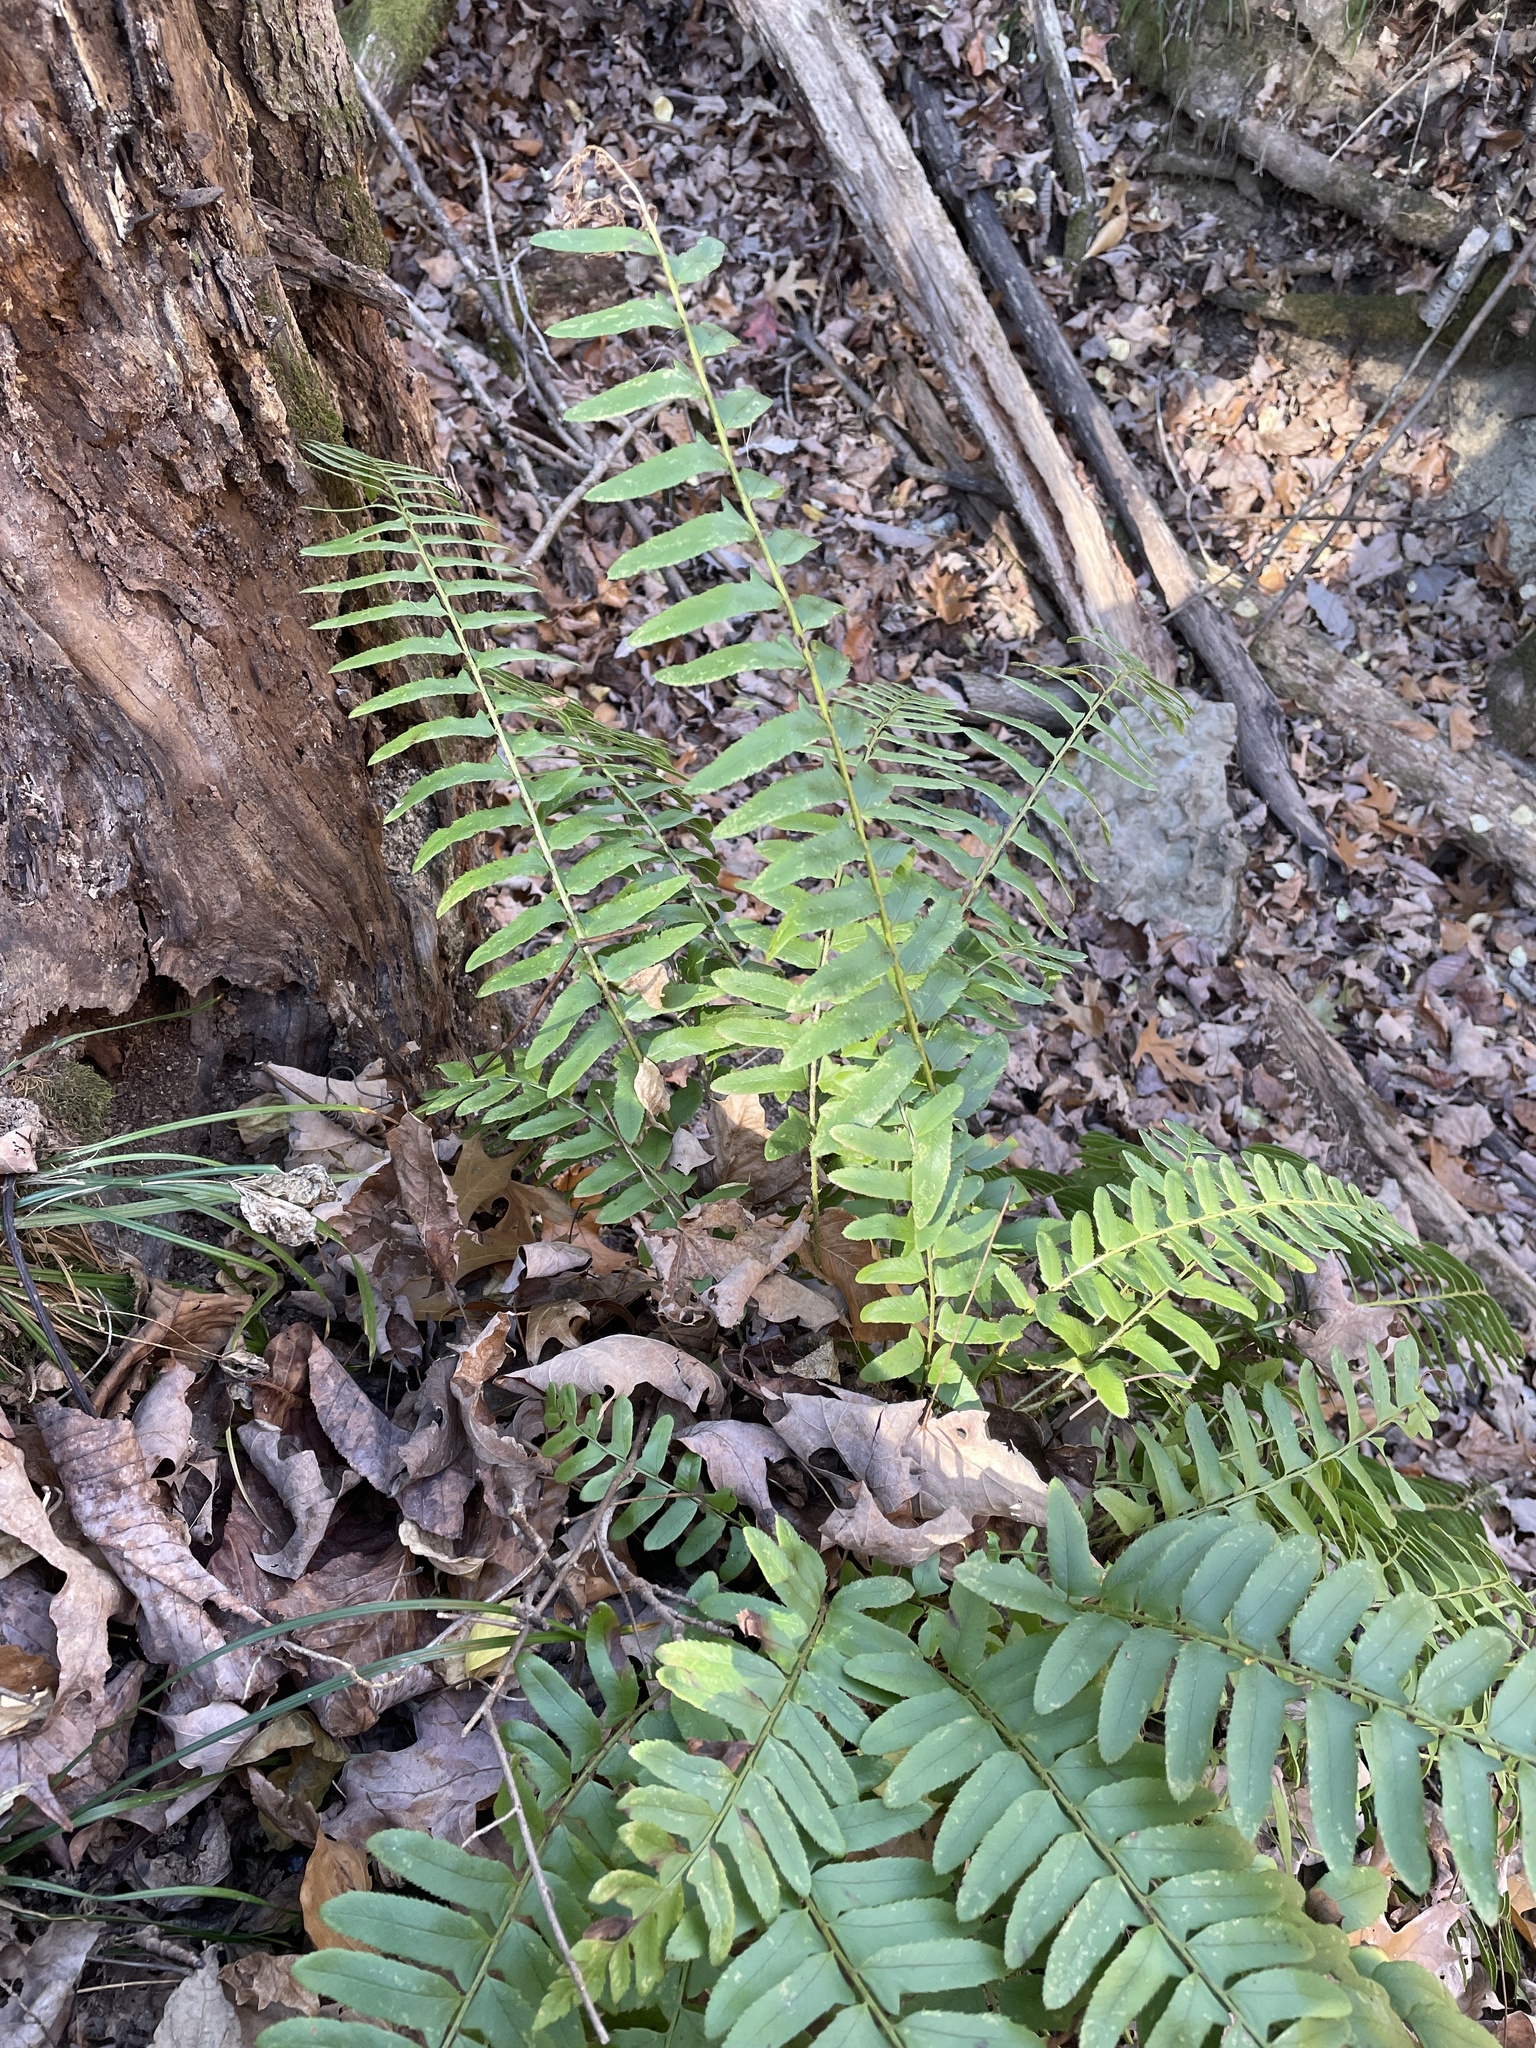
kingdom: Plantae
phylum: Tracheophyta
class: Polypodiopsida
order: Polypodiales
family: Dryopteridaceae
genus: Polystichum
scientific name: Polystichum acrostichoides
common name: Christmas fern
